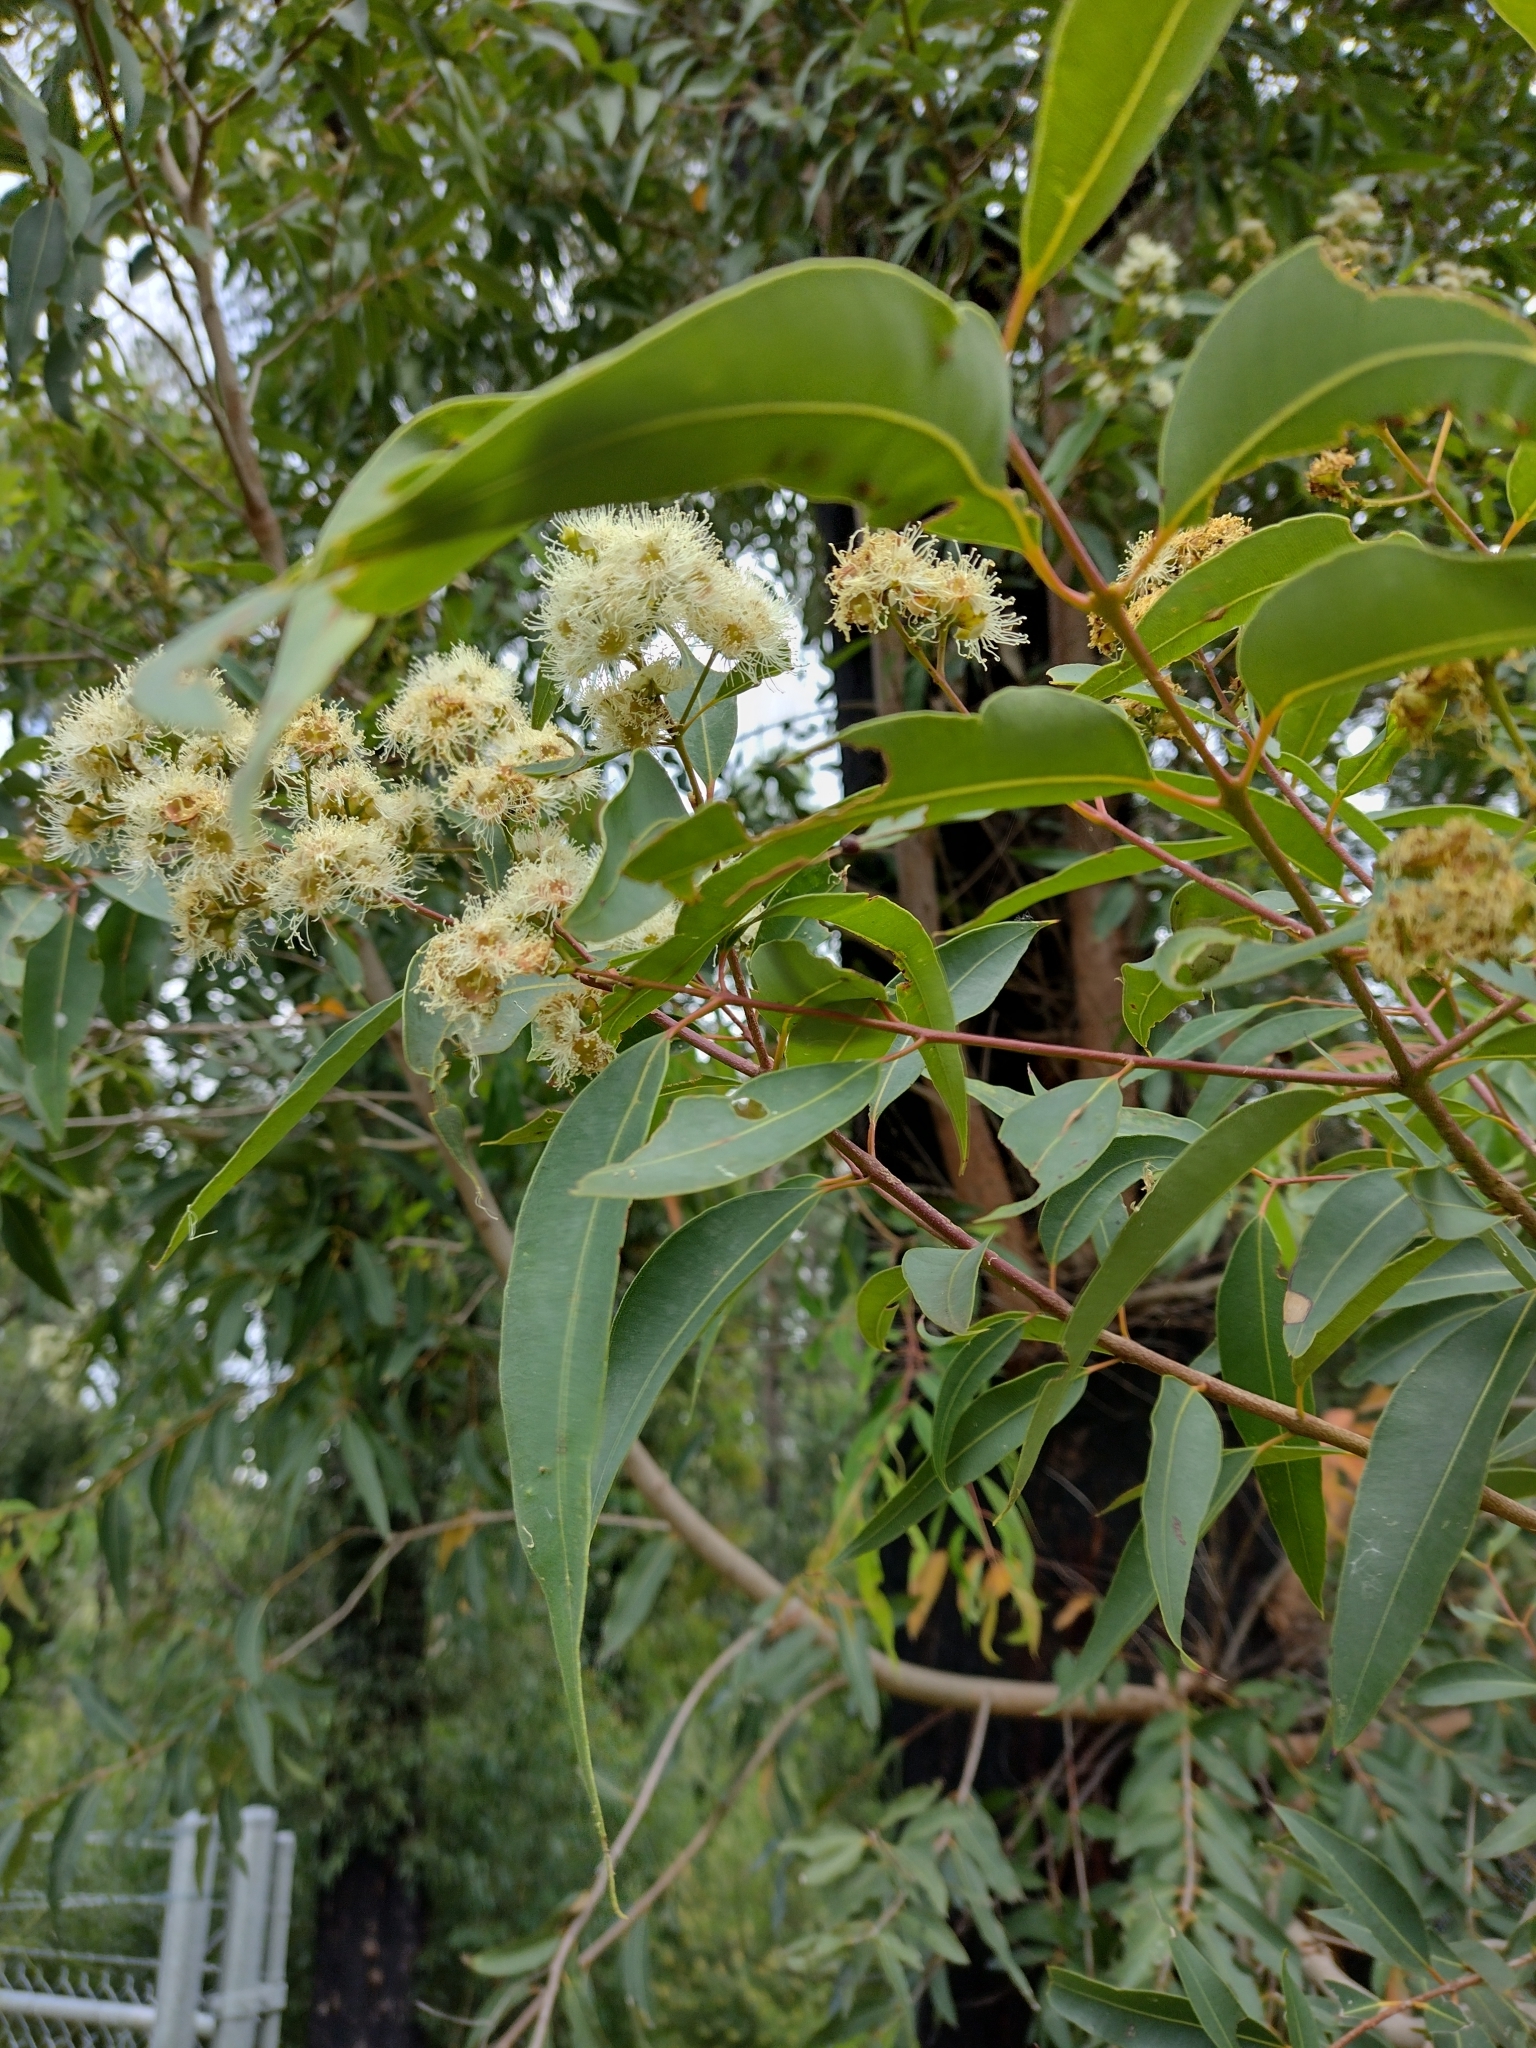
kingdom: Plantae
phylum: Tracheophyta
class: Magnoliopsida
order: Myrtales
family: Myrtaceae
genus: Angophora
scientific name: Angophora floribunda
